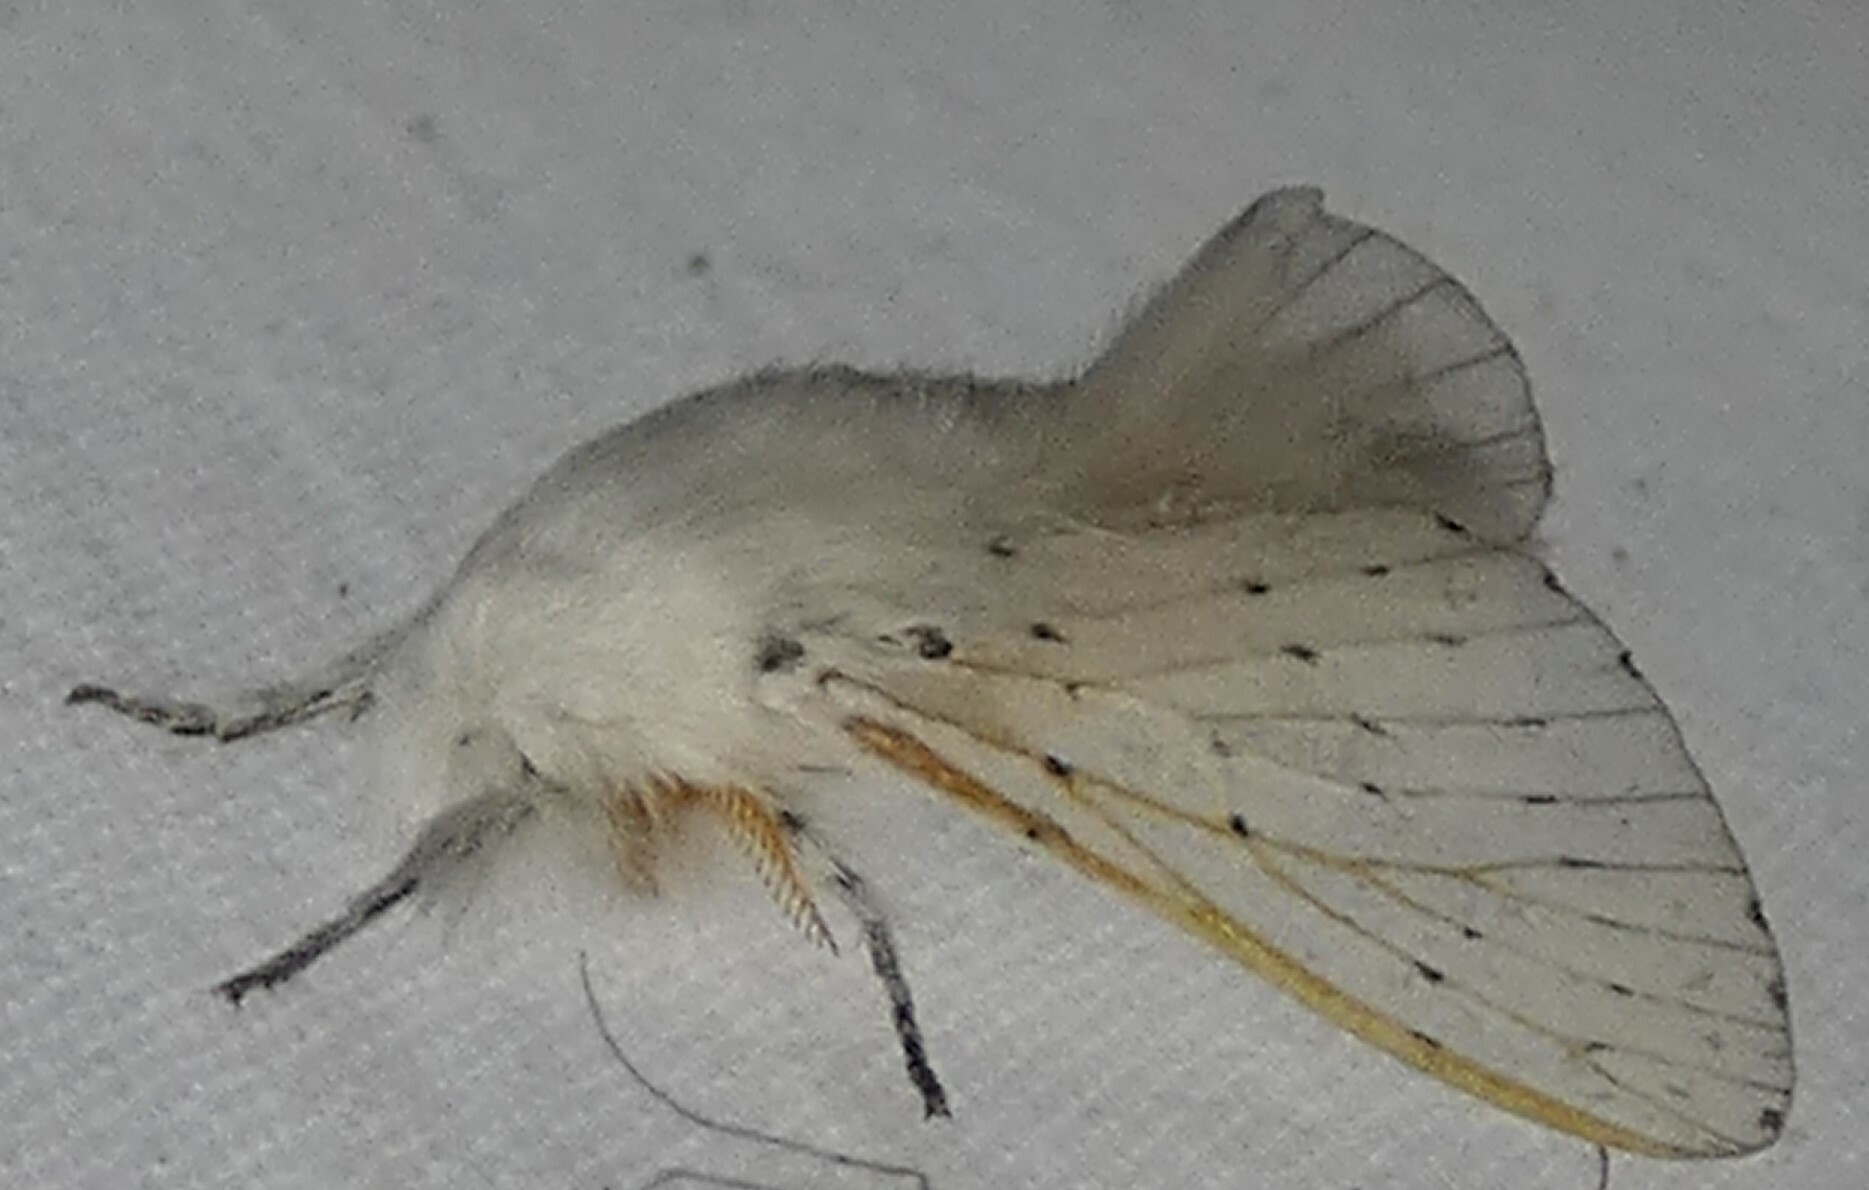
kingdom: Animalia
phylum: Arthropoda
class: Insecta
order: Lepidoptera
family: Lasiocampidae
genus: Artace
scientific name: Artace cribrarius
